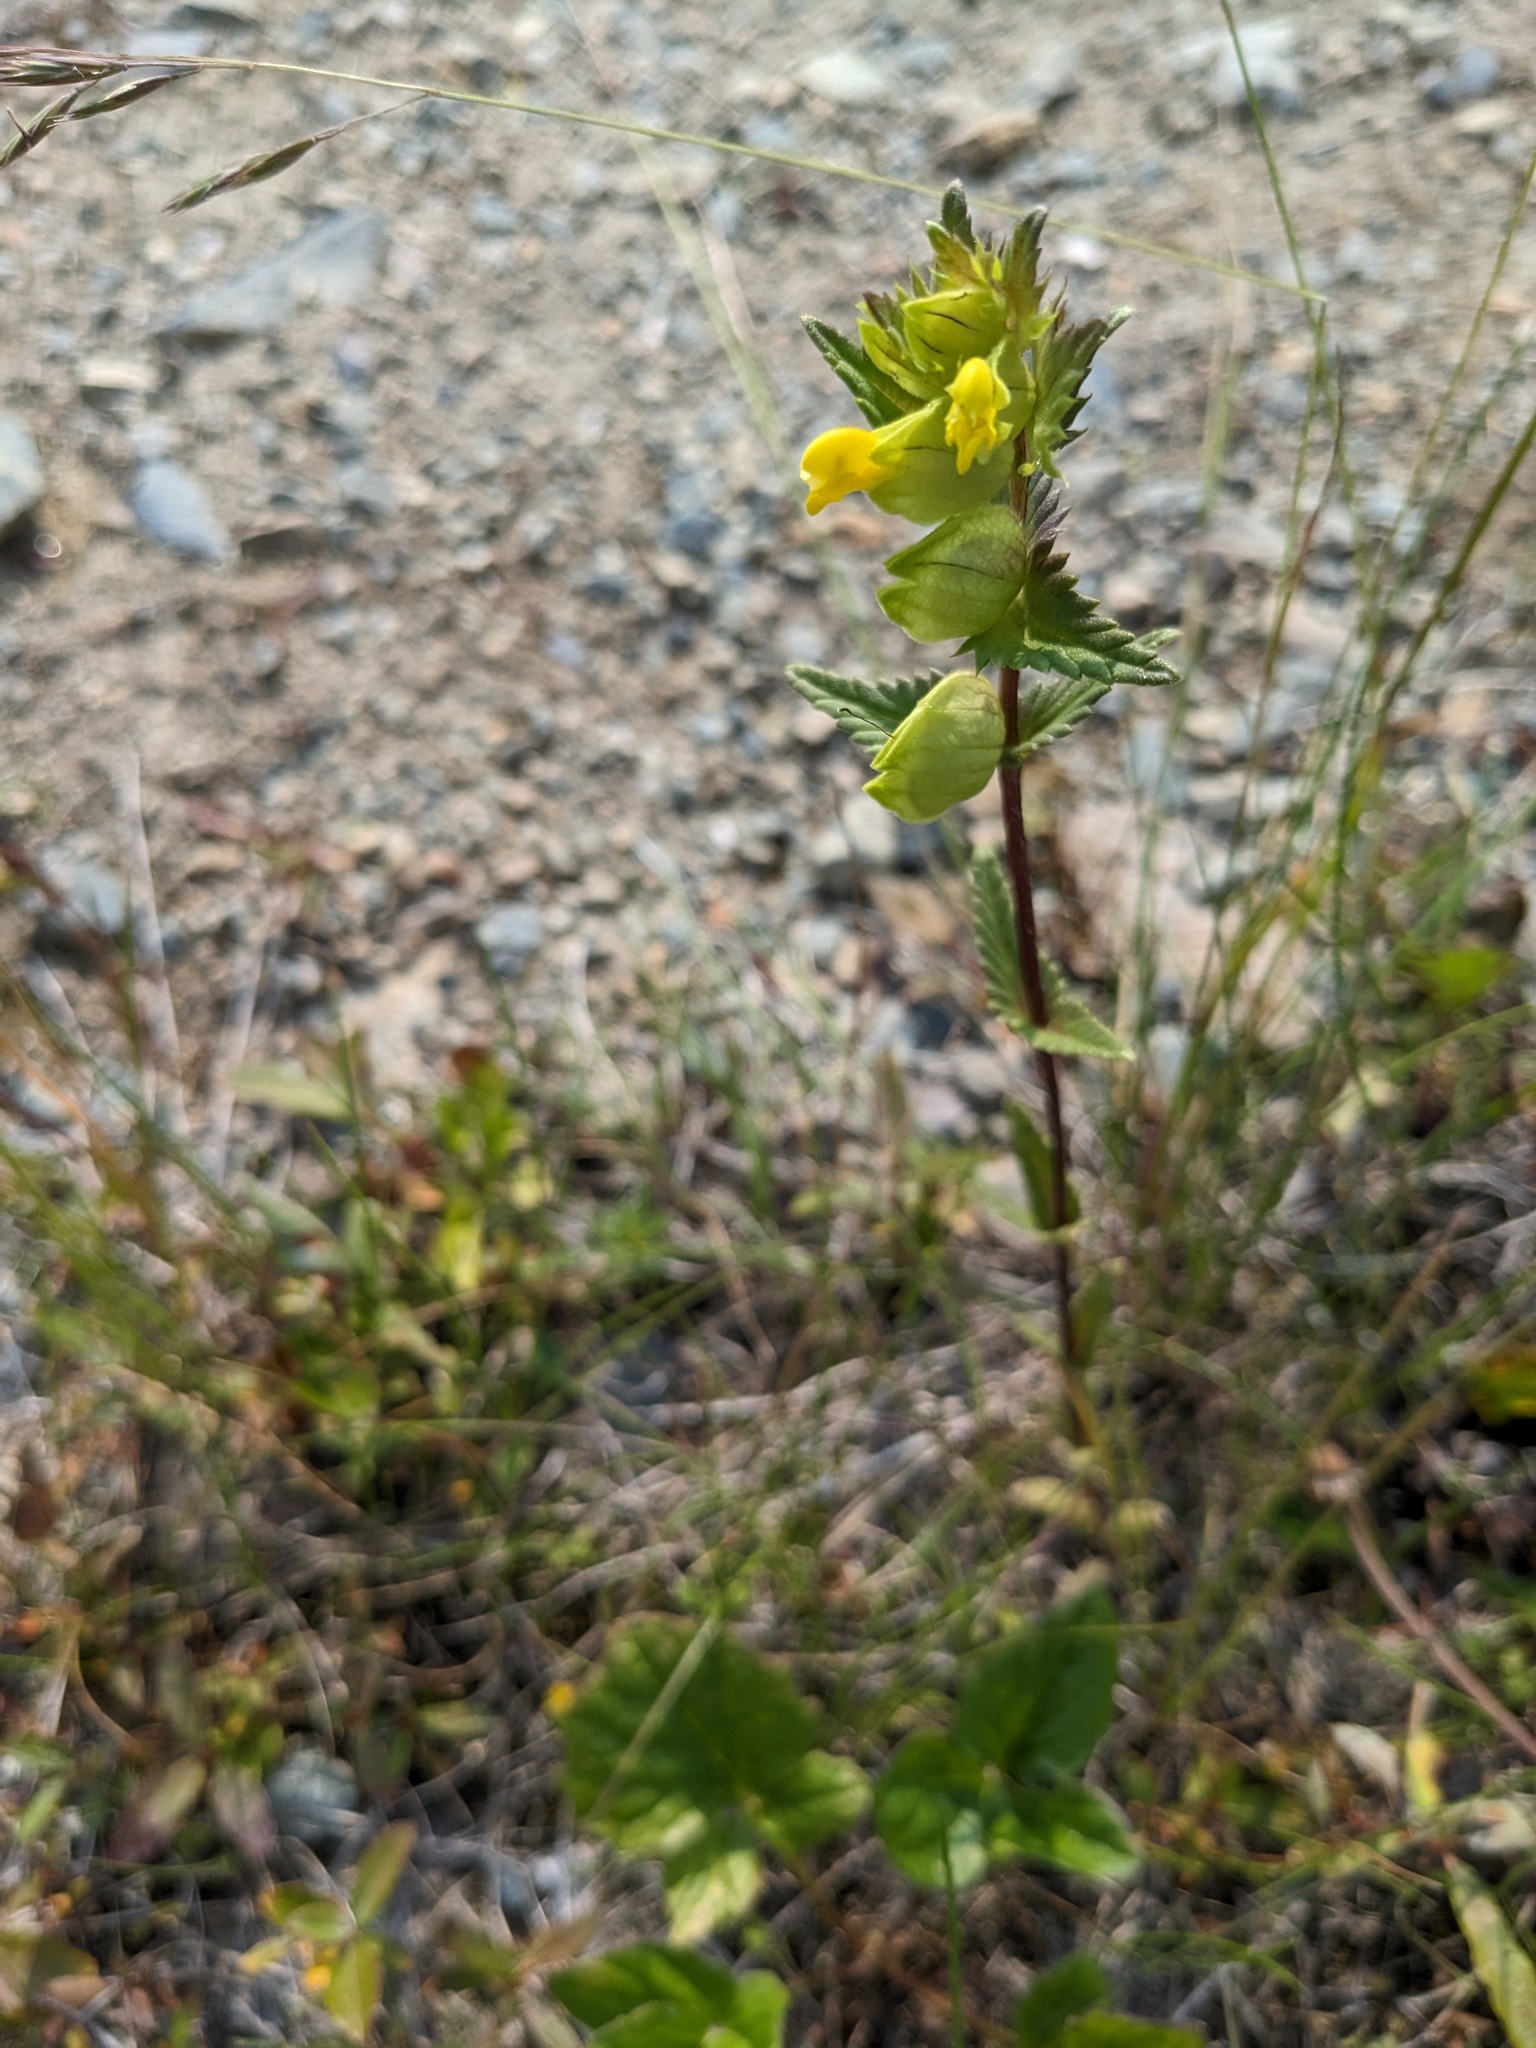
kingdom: Plantae
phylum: Tracheophyta
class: Magnoliopsida
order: Lamiales
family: Orobanchaceae
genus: Rhinanthus
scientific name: Rhinanthus groenlandicus
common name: Little yellow rattle
